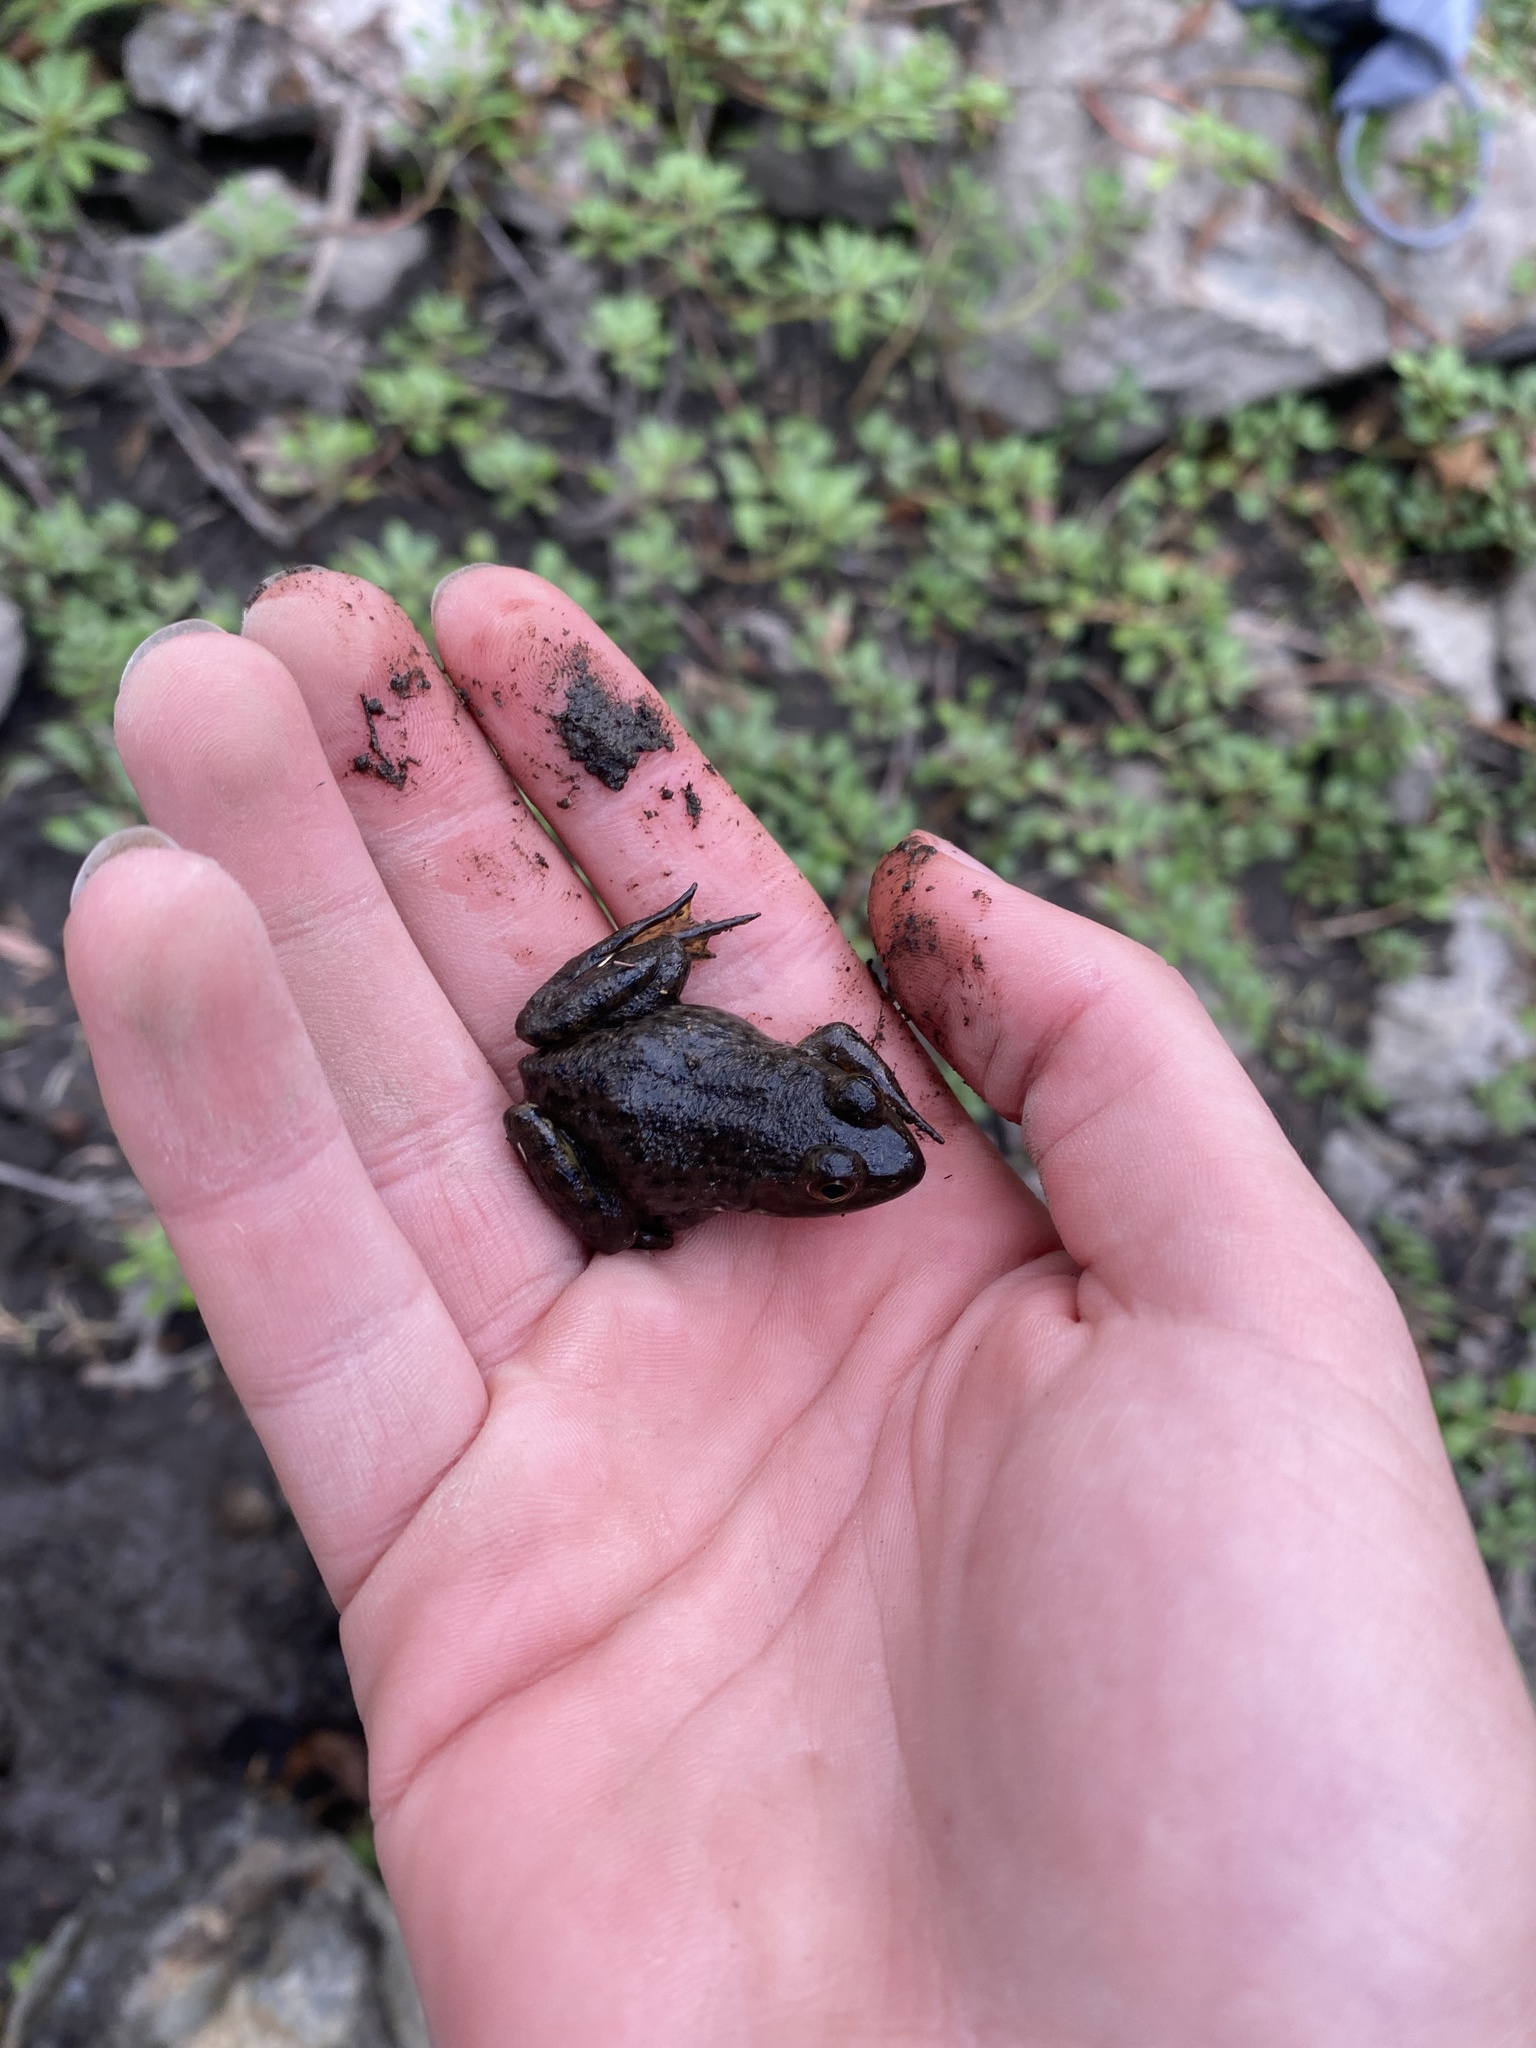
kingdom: Animalia
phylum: Chordata
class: Amphibia
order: Anura
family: Ranidae
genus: Lithobates
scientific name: Lithobates catesbeianus
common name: American bullfrog
